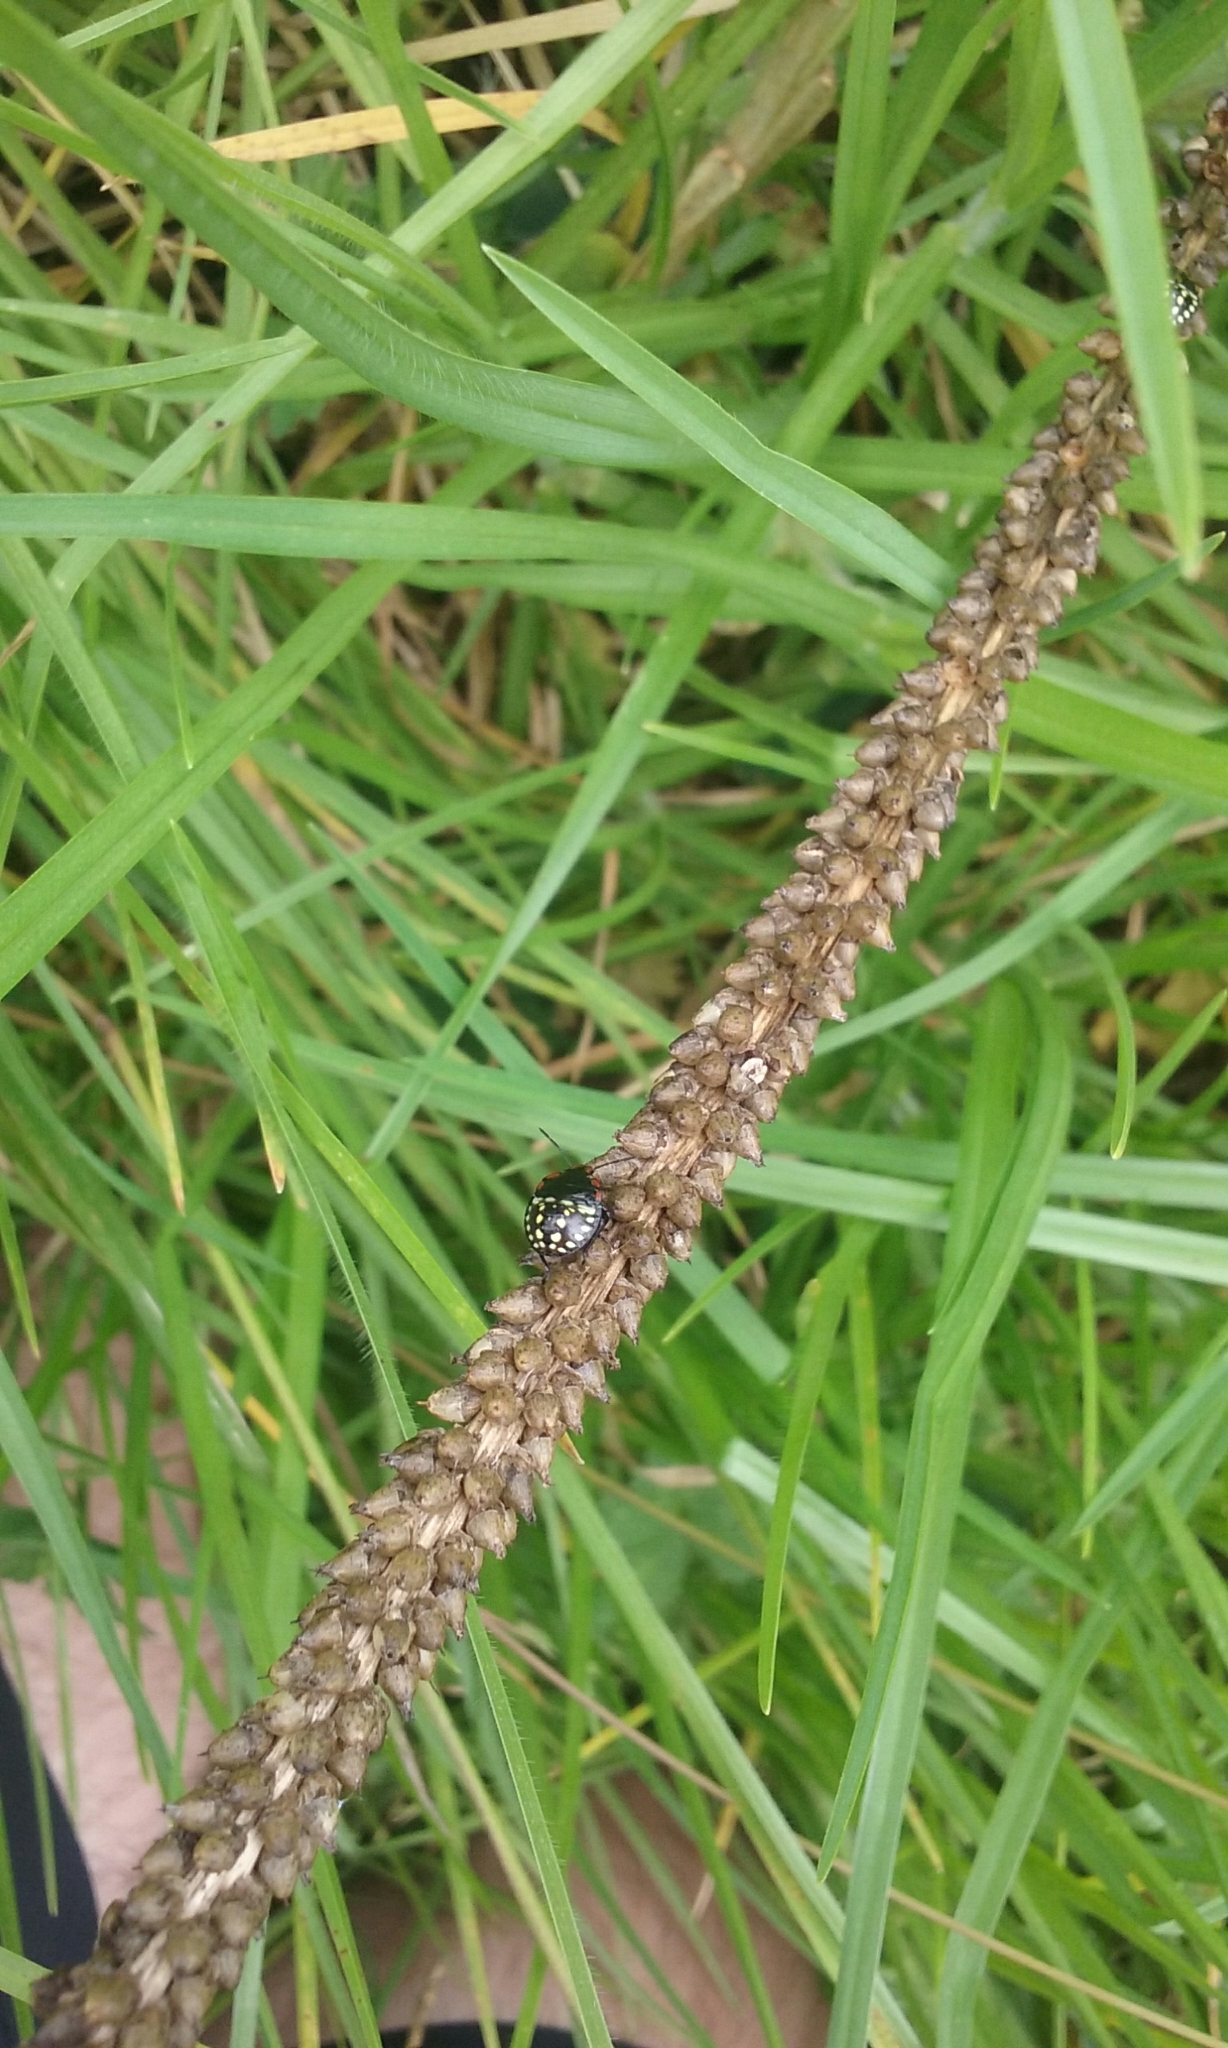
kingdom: Animalia
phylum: Arthropoda
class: Insecta
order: Hemiptera
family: Pentatomidae
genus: Nezara
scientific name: Nezara viridula
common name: Southern green stink bug
